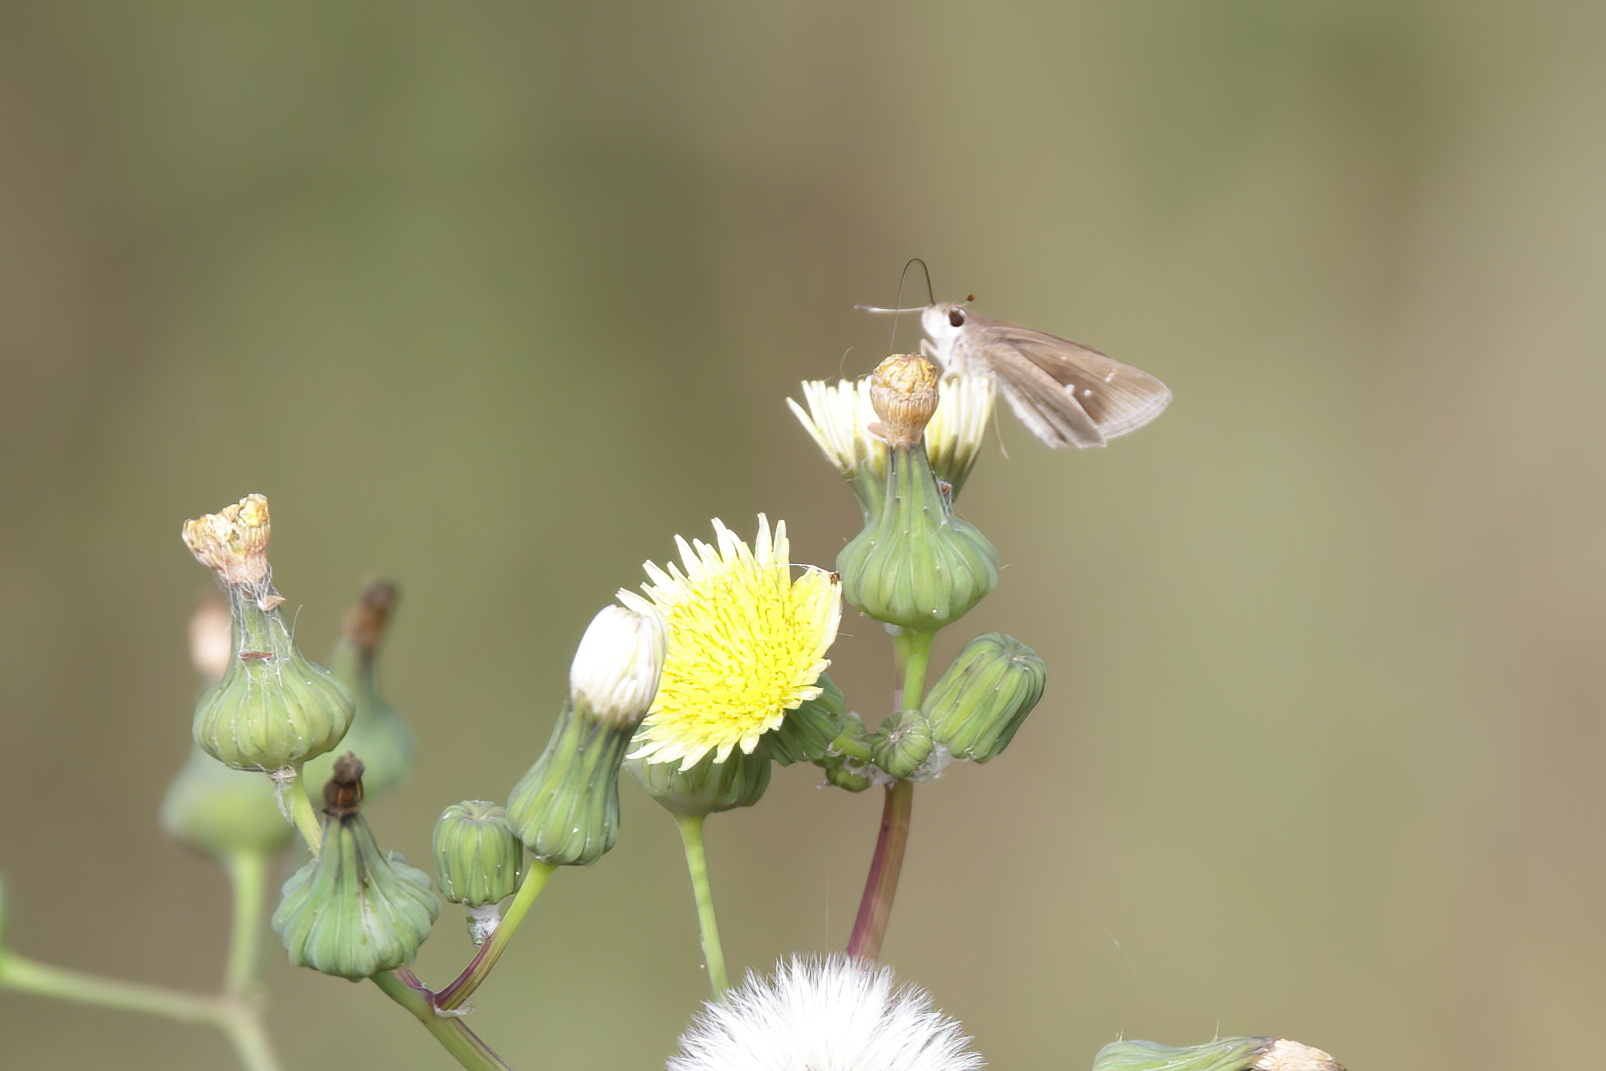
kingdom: Animalia
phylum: Arthropoda
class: Insecta
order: Lepidoptera
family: Hesperiidae
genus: Lerodea
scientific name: Lerodea eufala
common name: Eufala skipper
